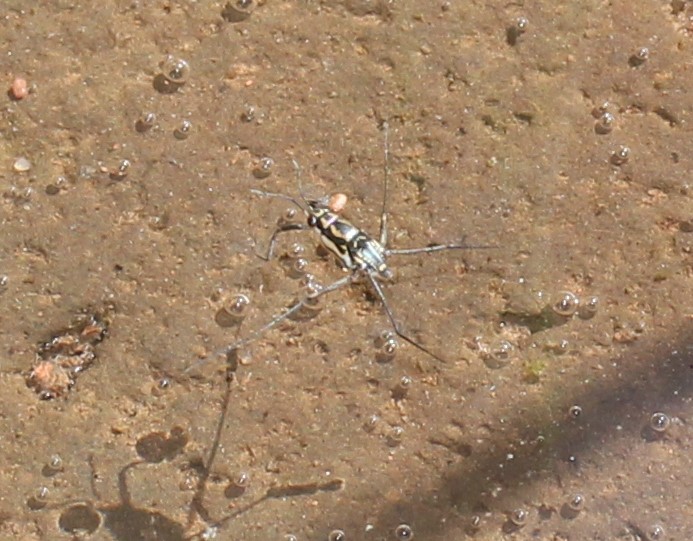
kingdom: Animalia
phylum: Arthropoda
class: Insecta
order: Hemiptera
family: Gerridae
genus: Trepobates
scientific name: Trepobates becki
